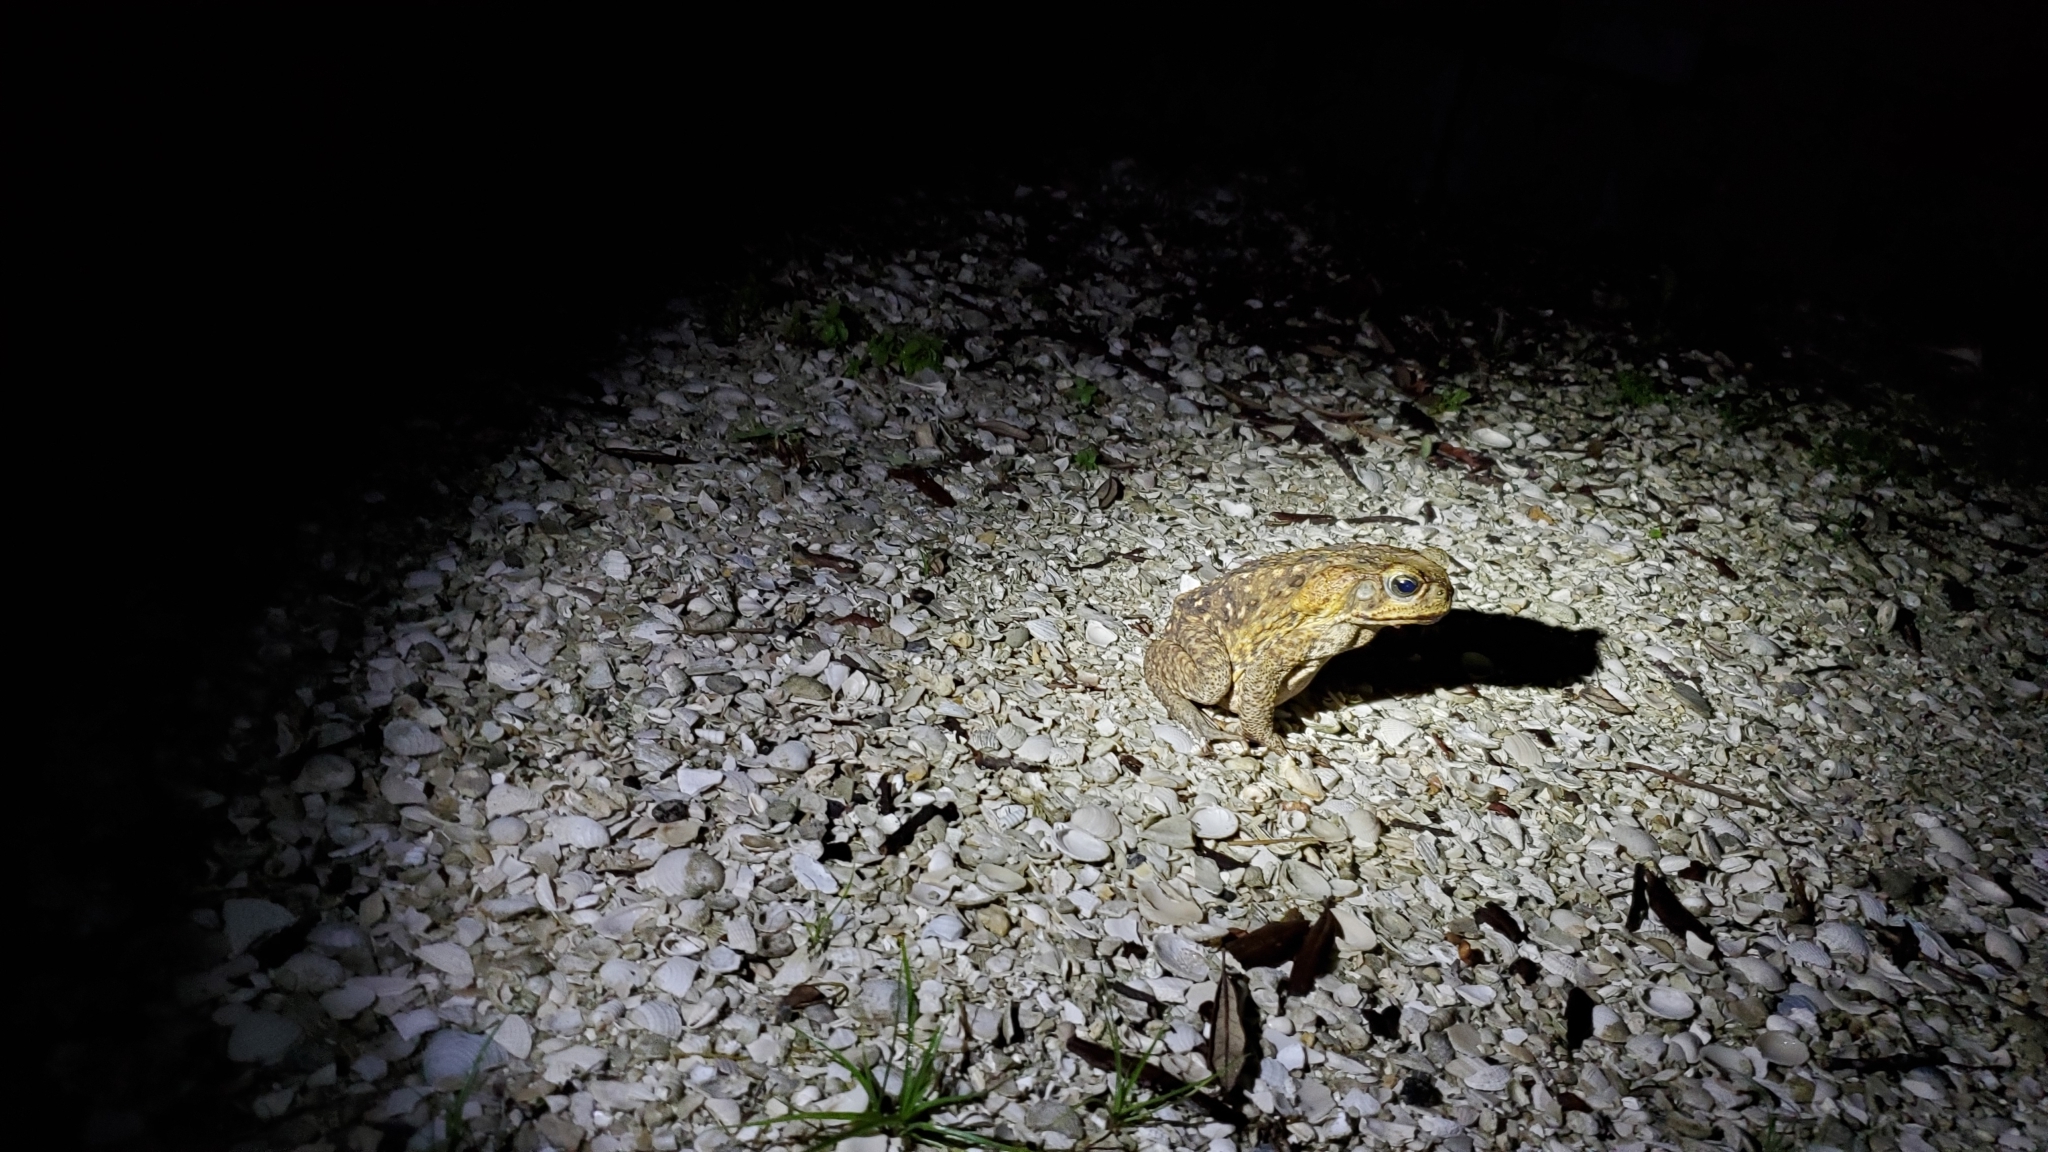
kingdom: Animalia
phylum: Chordata
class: Amphibia
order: Anura
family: Bufonidae
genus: Rhinella
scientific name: Rhinella marina
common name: Cane toad
